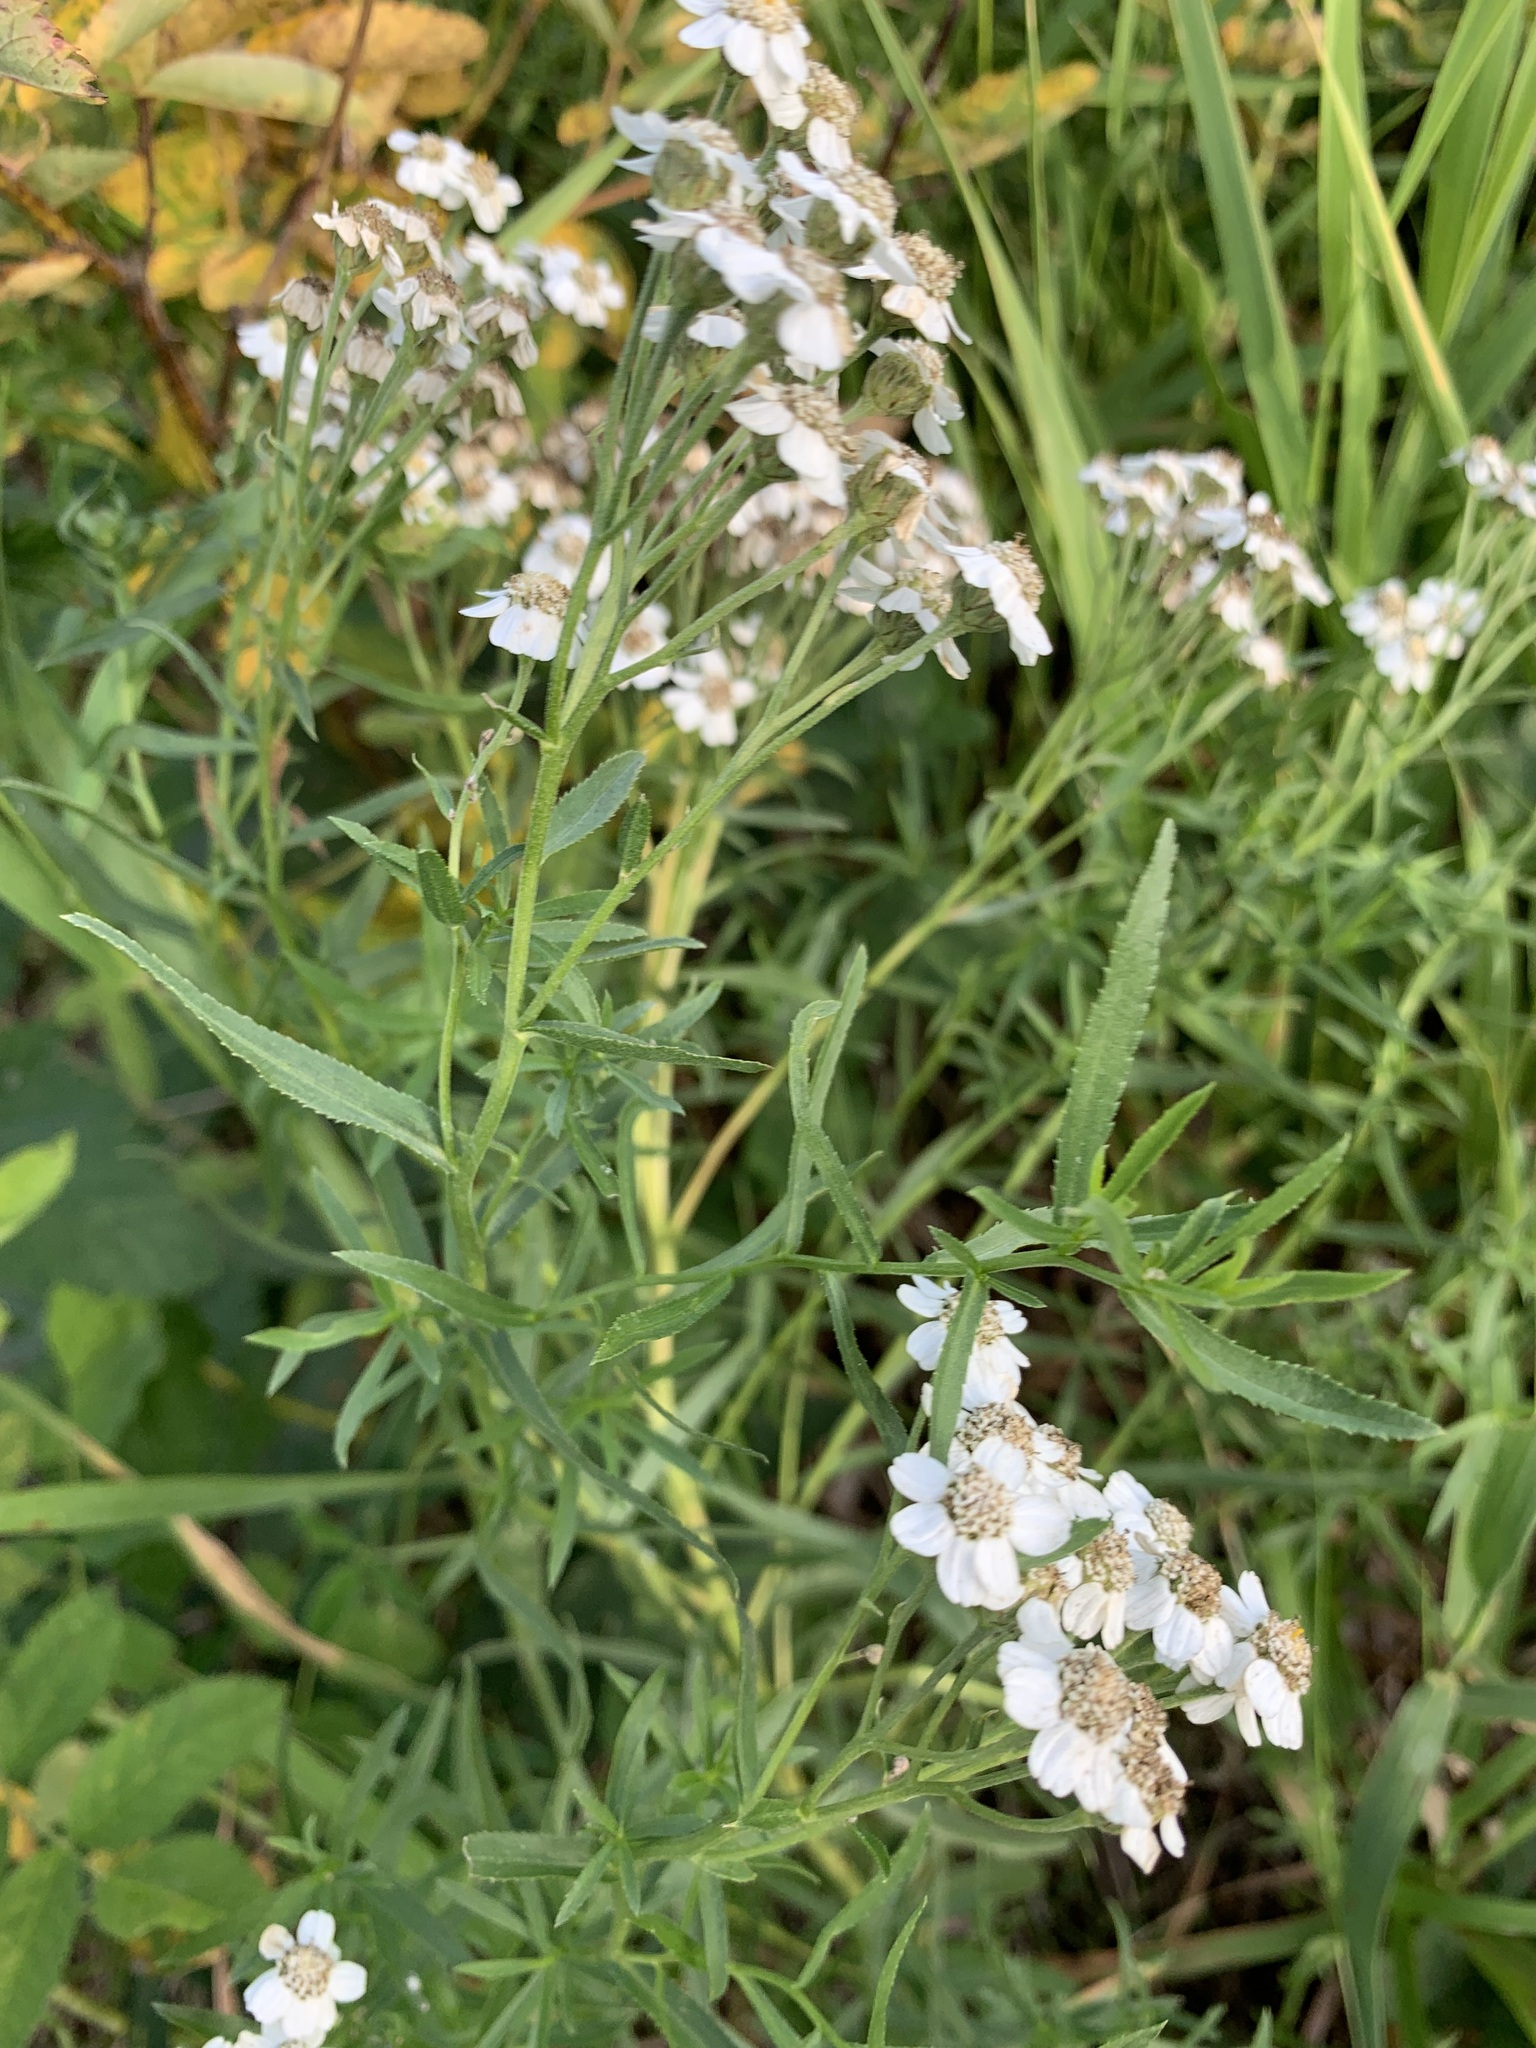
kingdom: Plantae
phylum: Tracheophyta
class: Magnoliopsida
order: Asterales
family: Asteraceae
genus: Achillea
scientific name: Achillea salicifolia
